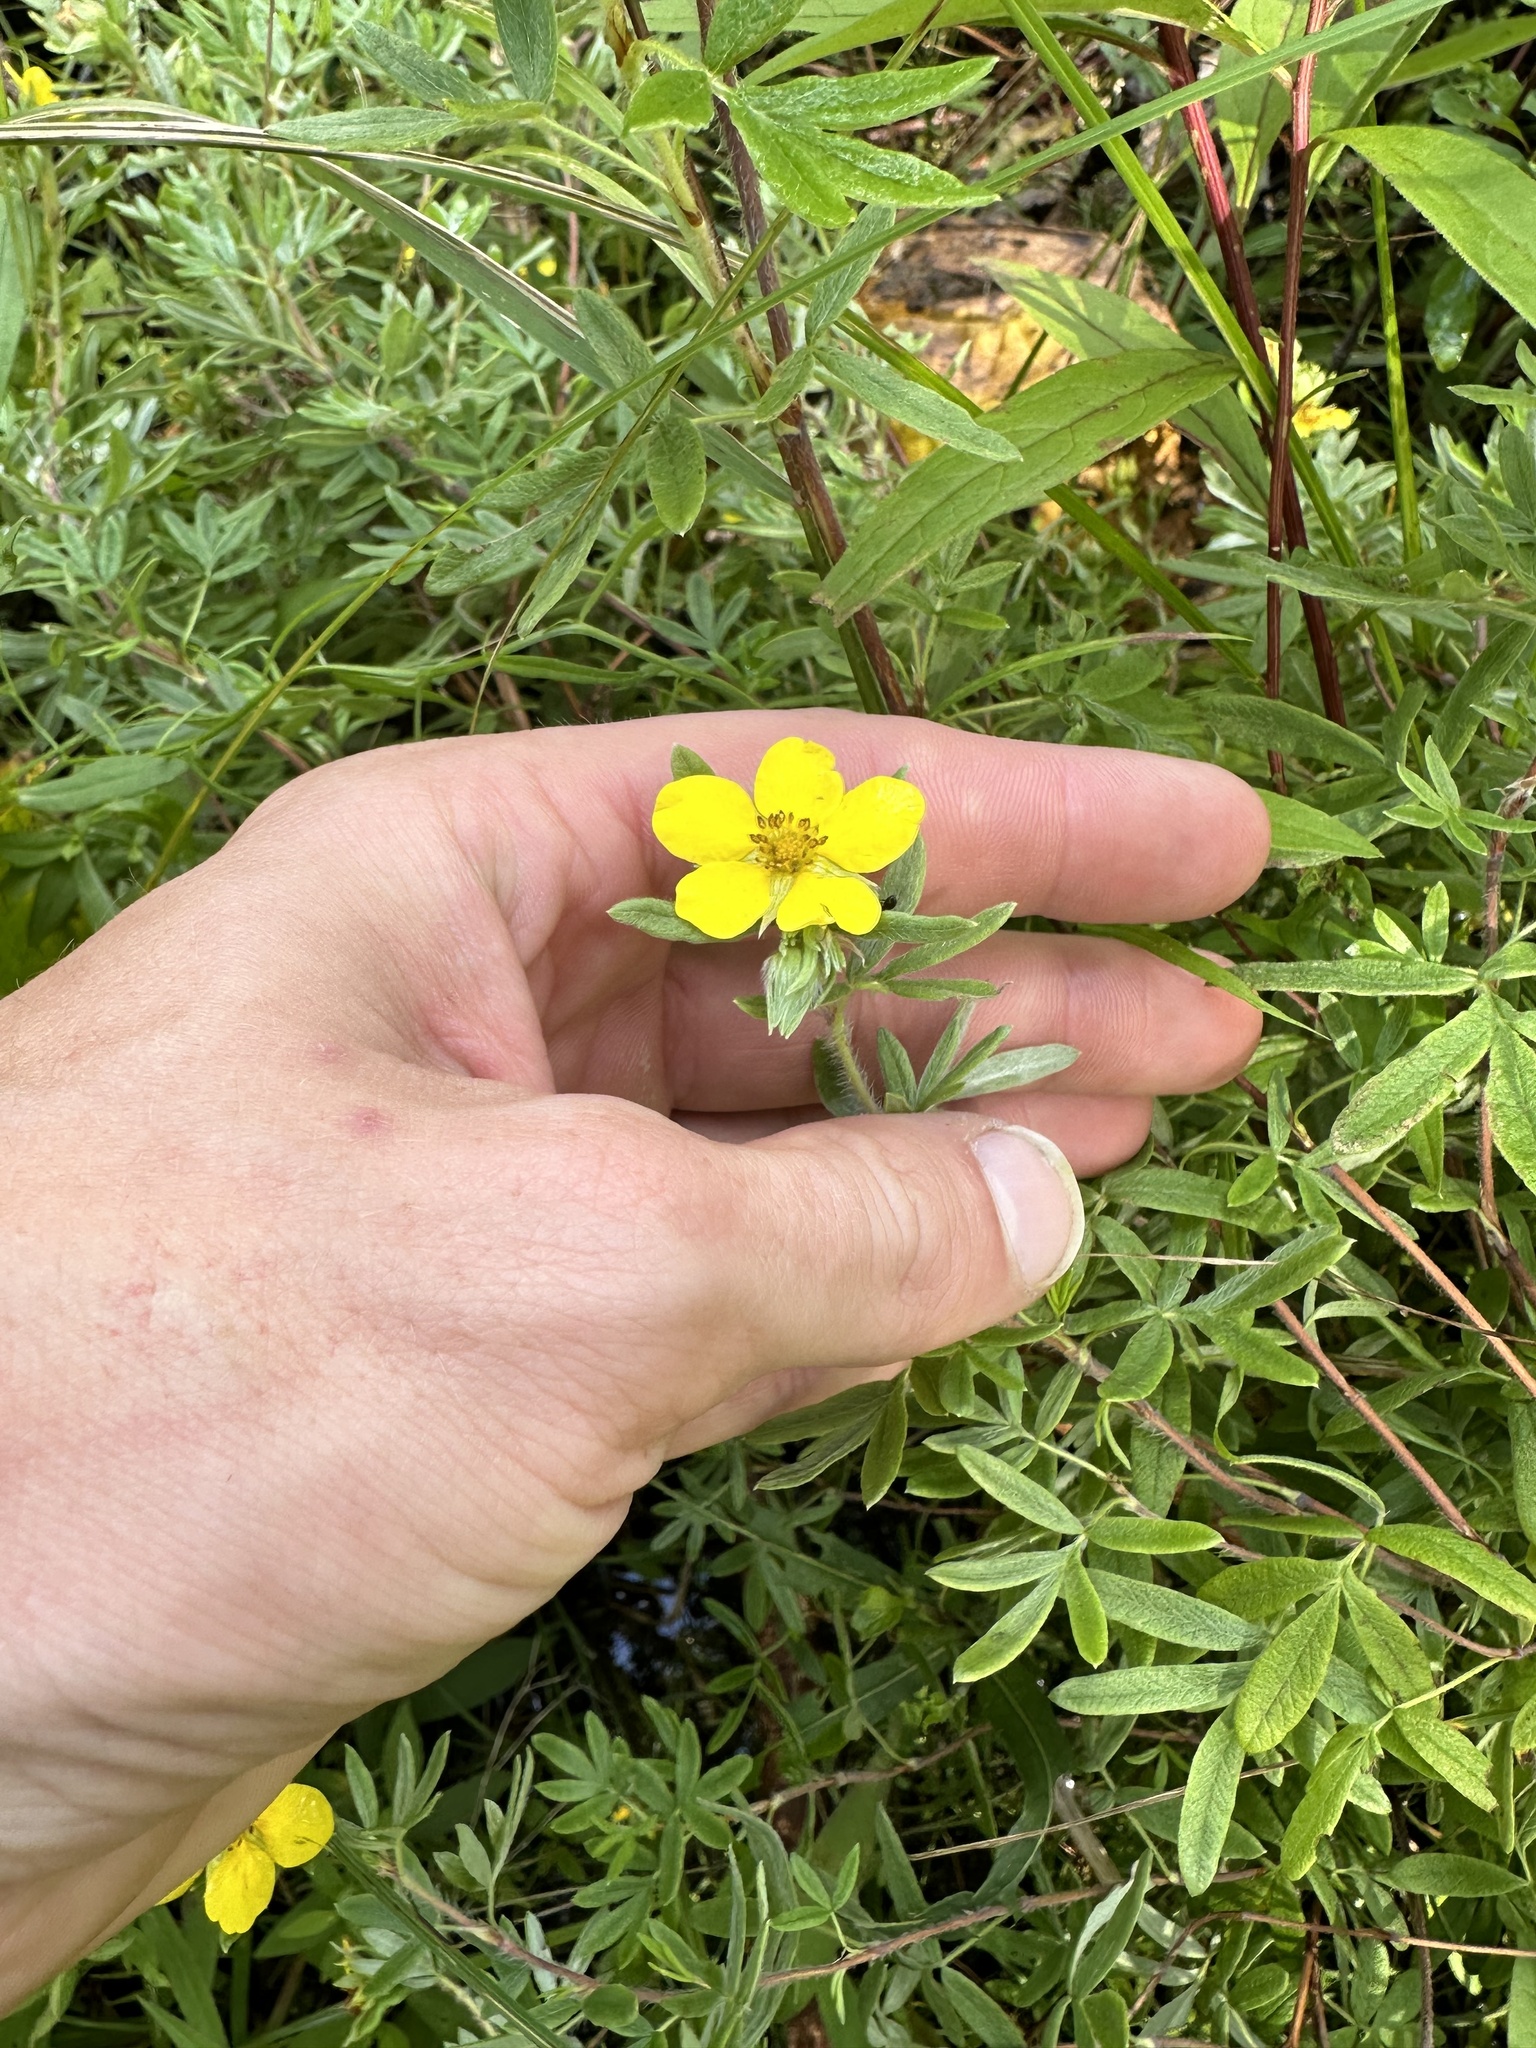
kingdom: Plantae
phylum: Tracheophyta
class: Magnoliopsida
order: Rosales
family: Rosaceae
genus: Dasiphora
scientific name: Dasiphora fruticosa
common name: Shrubby cinquefoil
